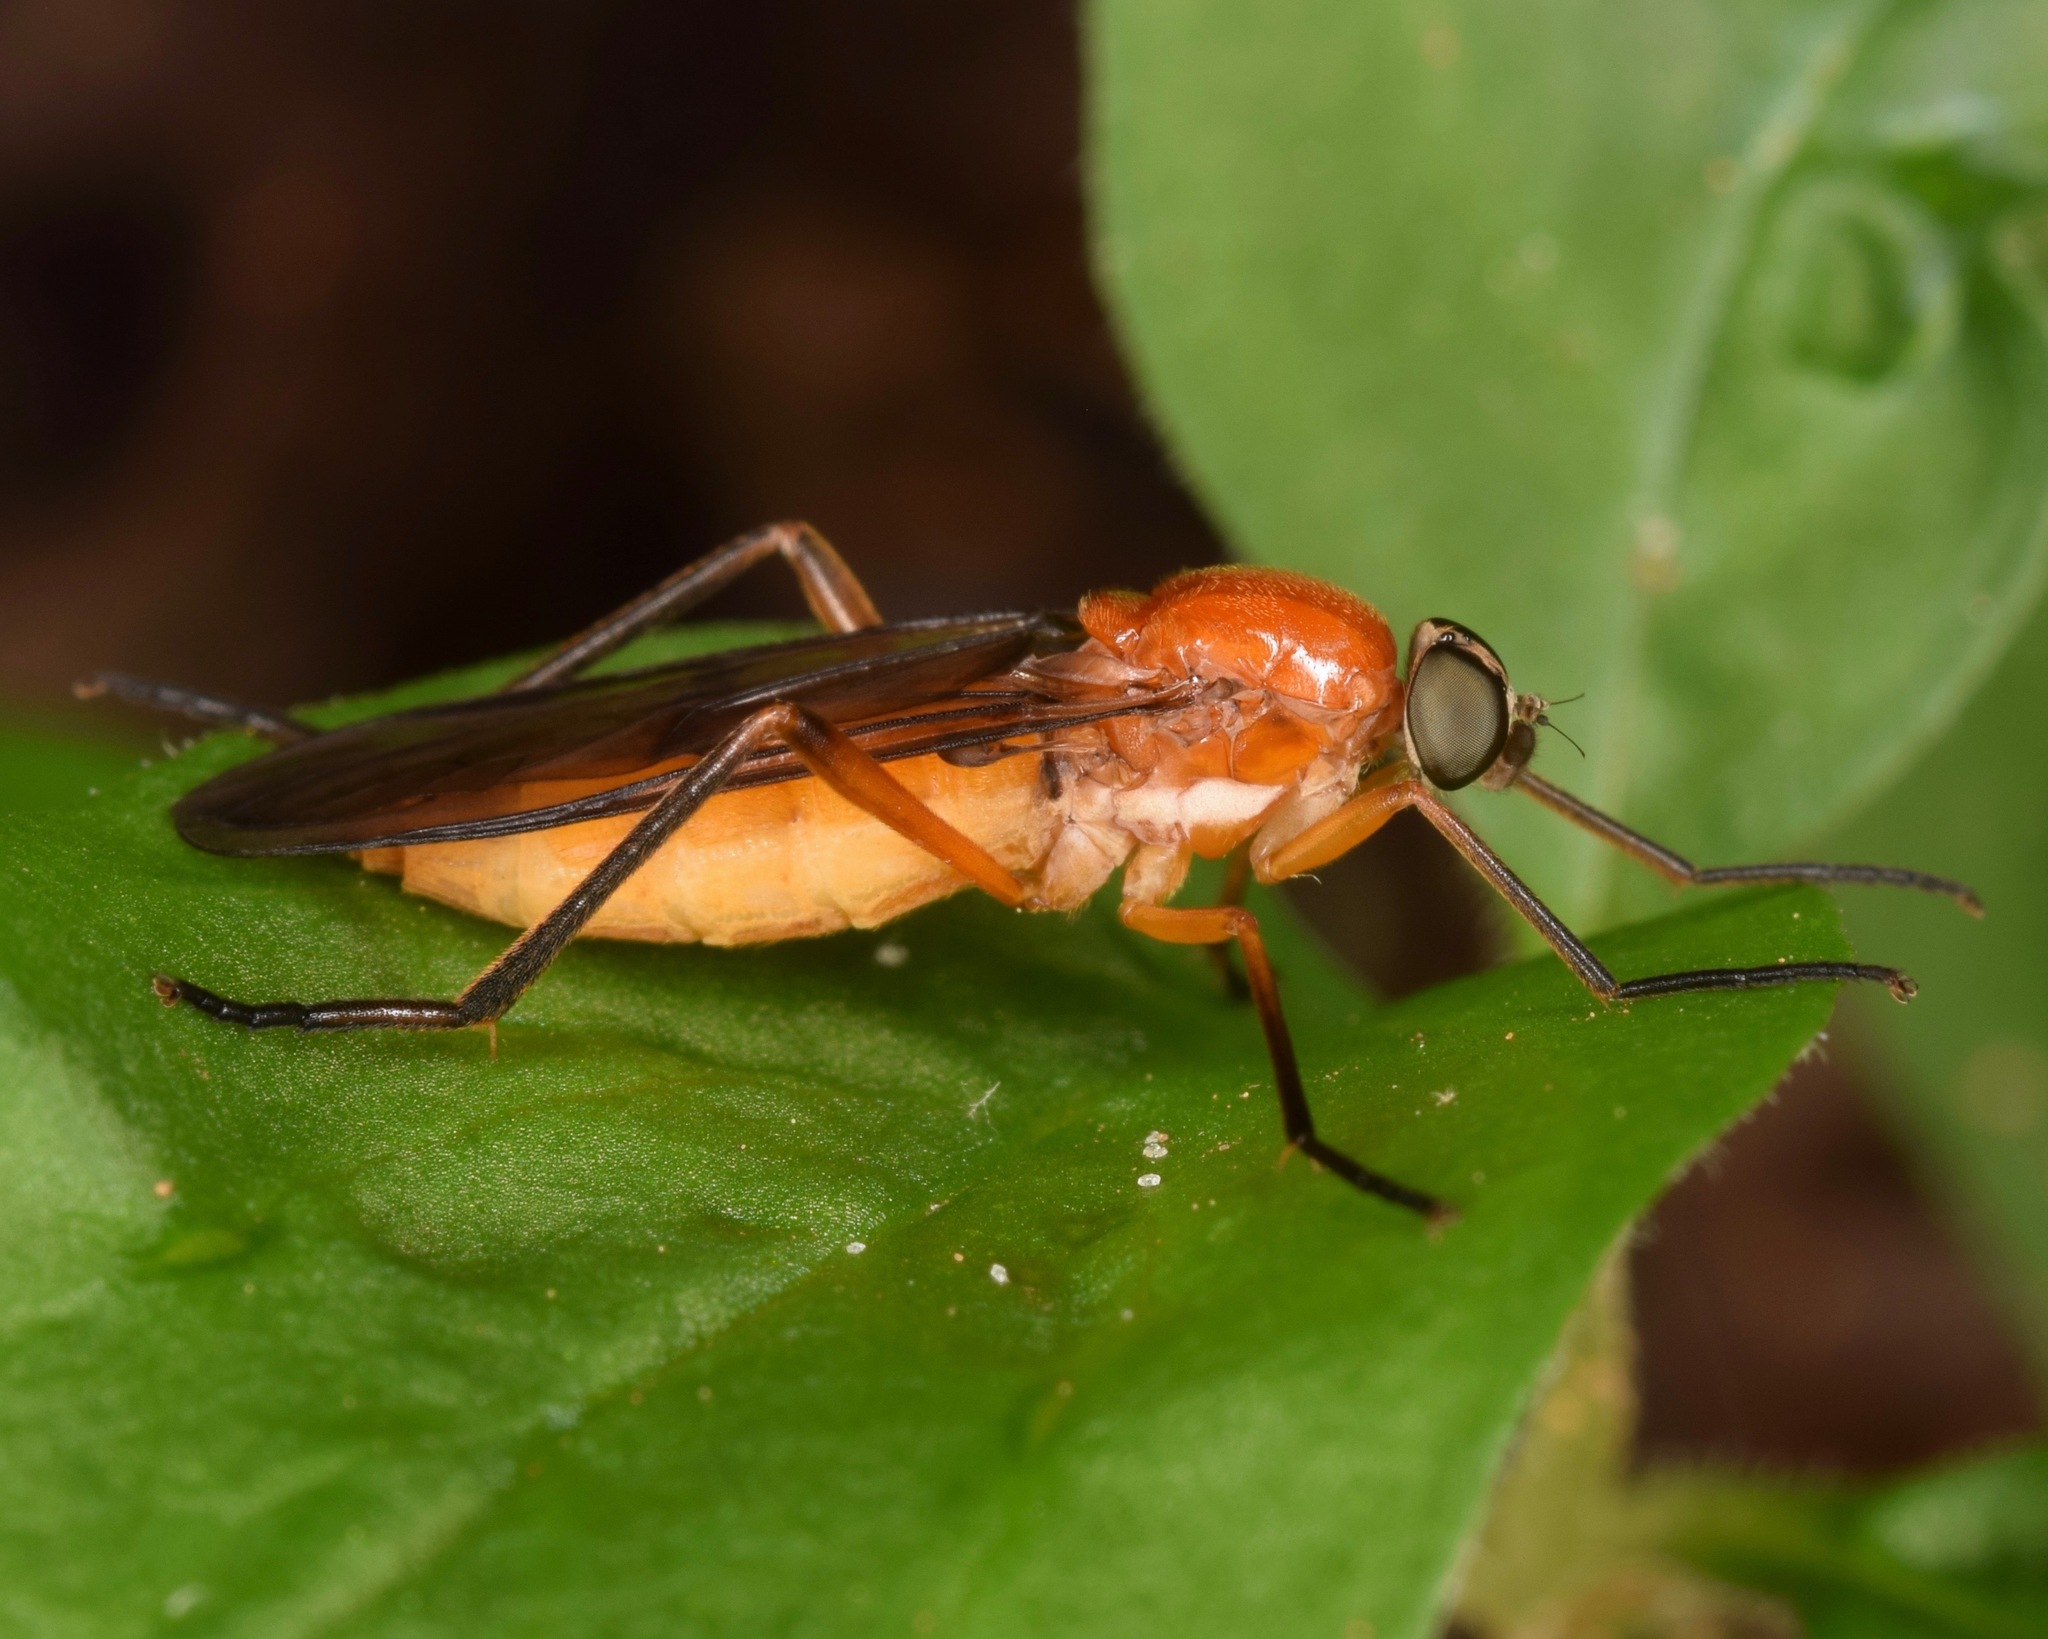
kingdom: Animalia
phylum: Arthropoda
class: Insecta
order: Diptera
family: Xylophagidae
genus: Dialysis
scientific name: Dialysis rufithorax
